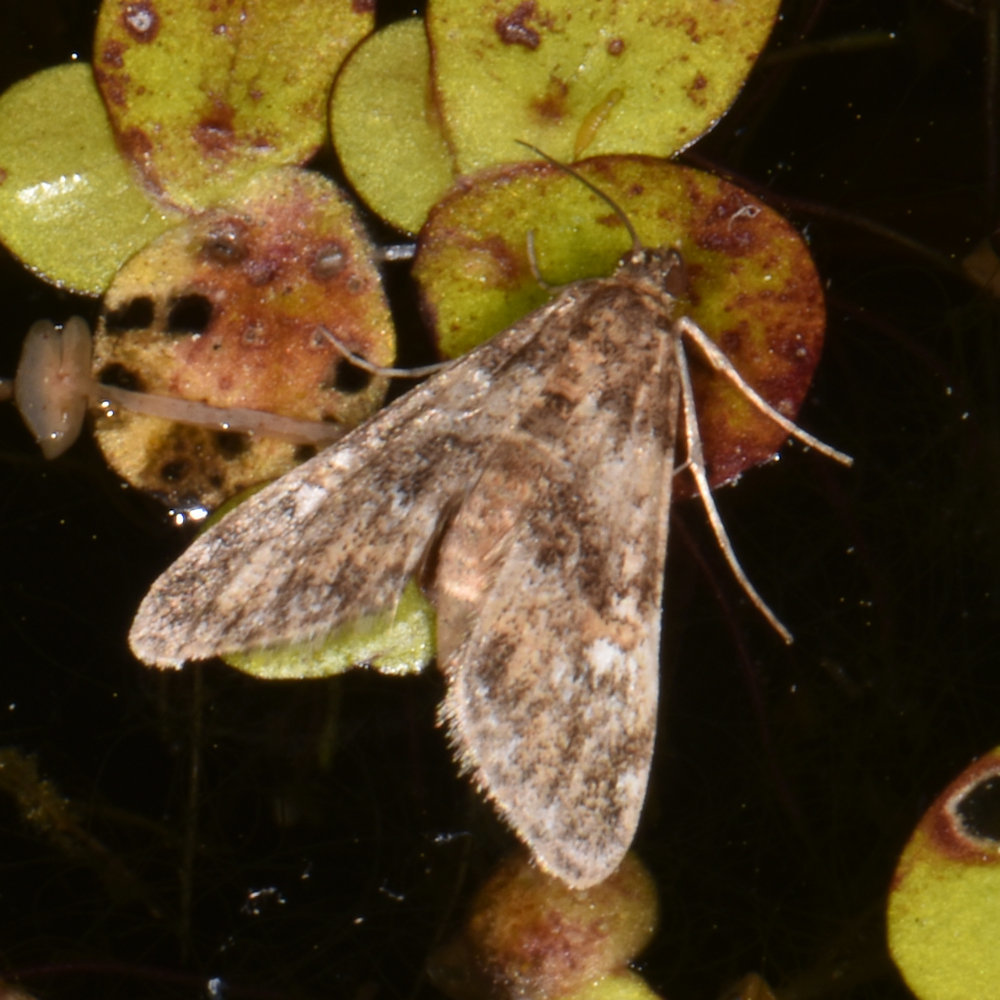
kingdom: Animalia
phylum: Arthropoda
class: Insecta
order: Lepidoptera
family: Crambidae
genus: Elophila
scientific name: Elophila obliteralis
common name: Waterlily leafcutter moth
